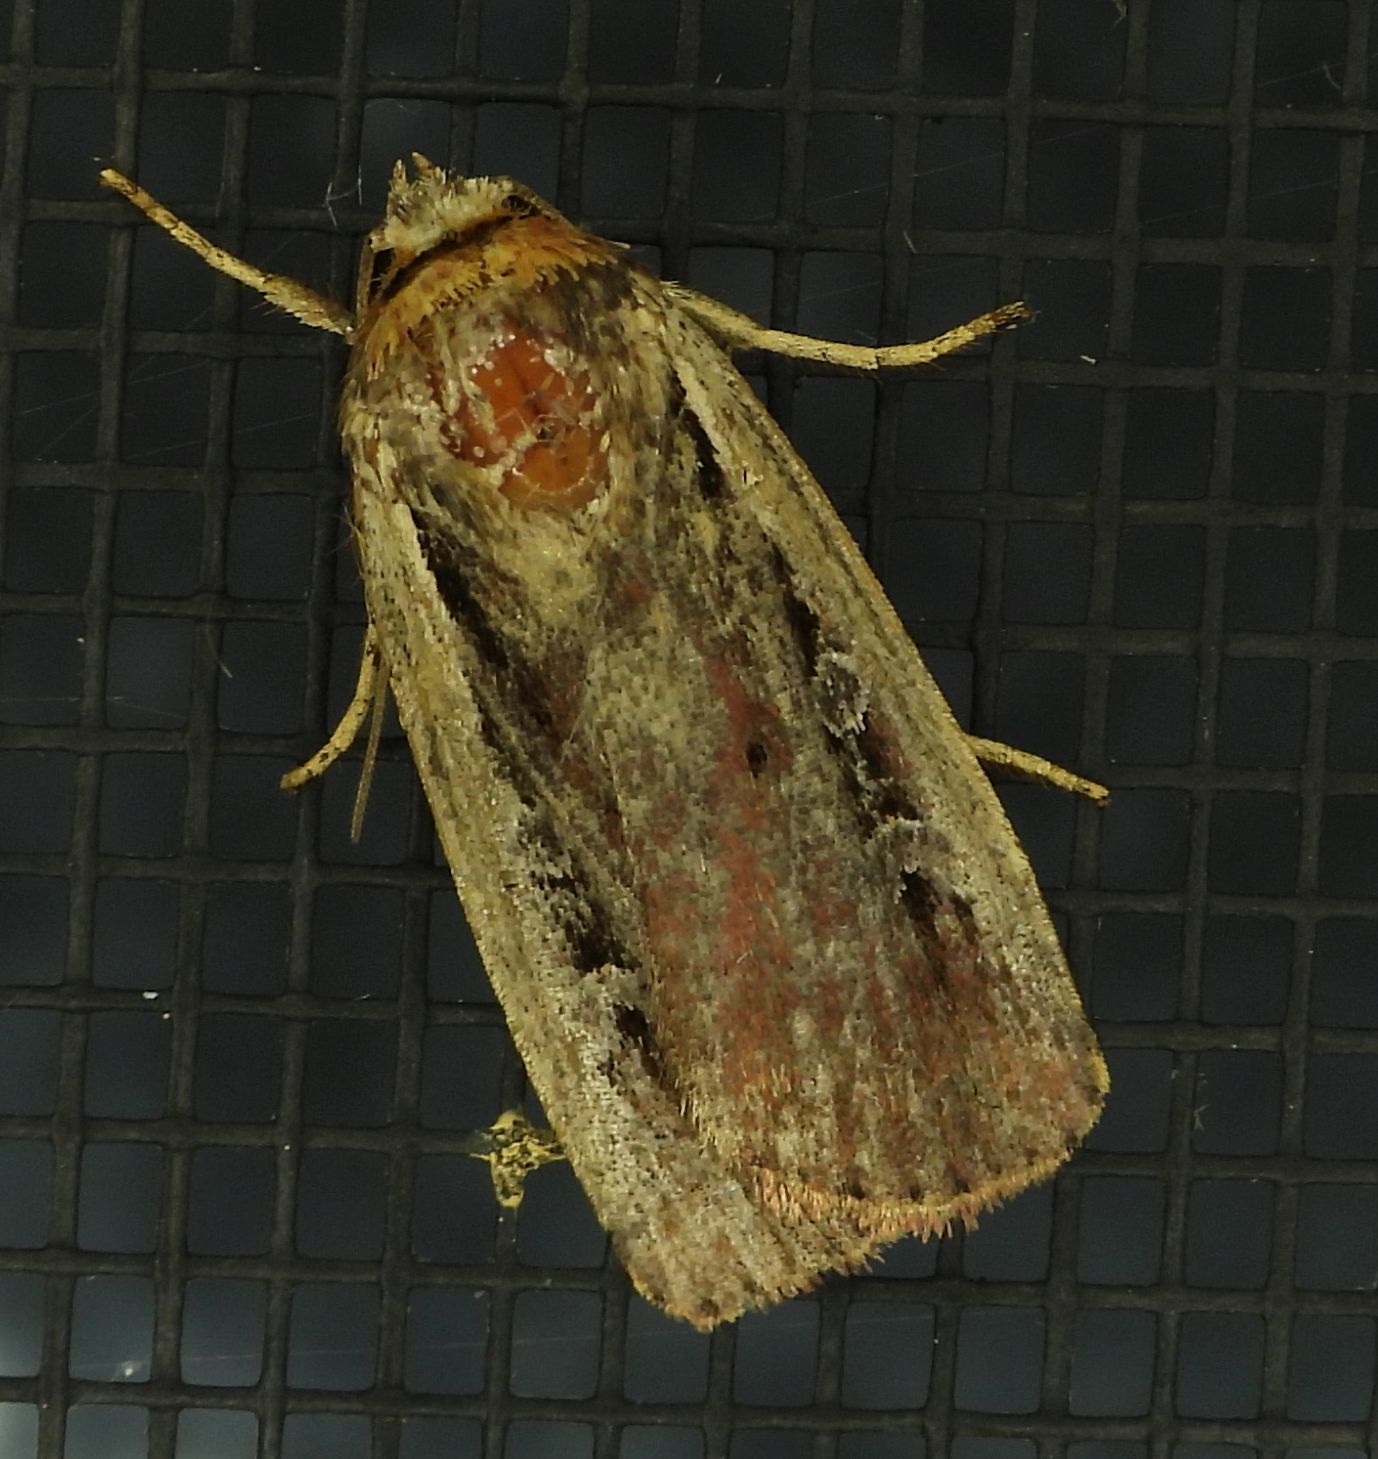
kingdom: Animalia
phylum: Arthropoda
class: Insecta
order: Lepidoptera
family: Noctuidae
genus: Ochropleura
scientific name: Ochropleura implecta
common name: Flame-shouldered dart
